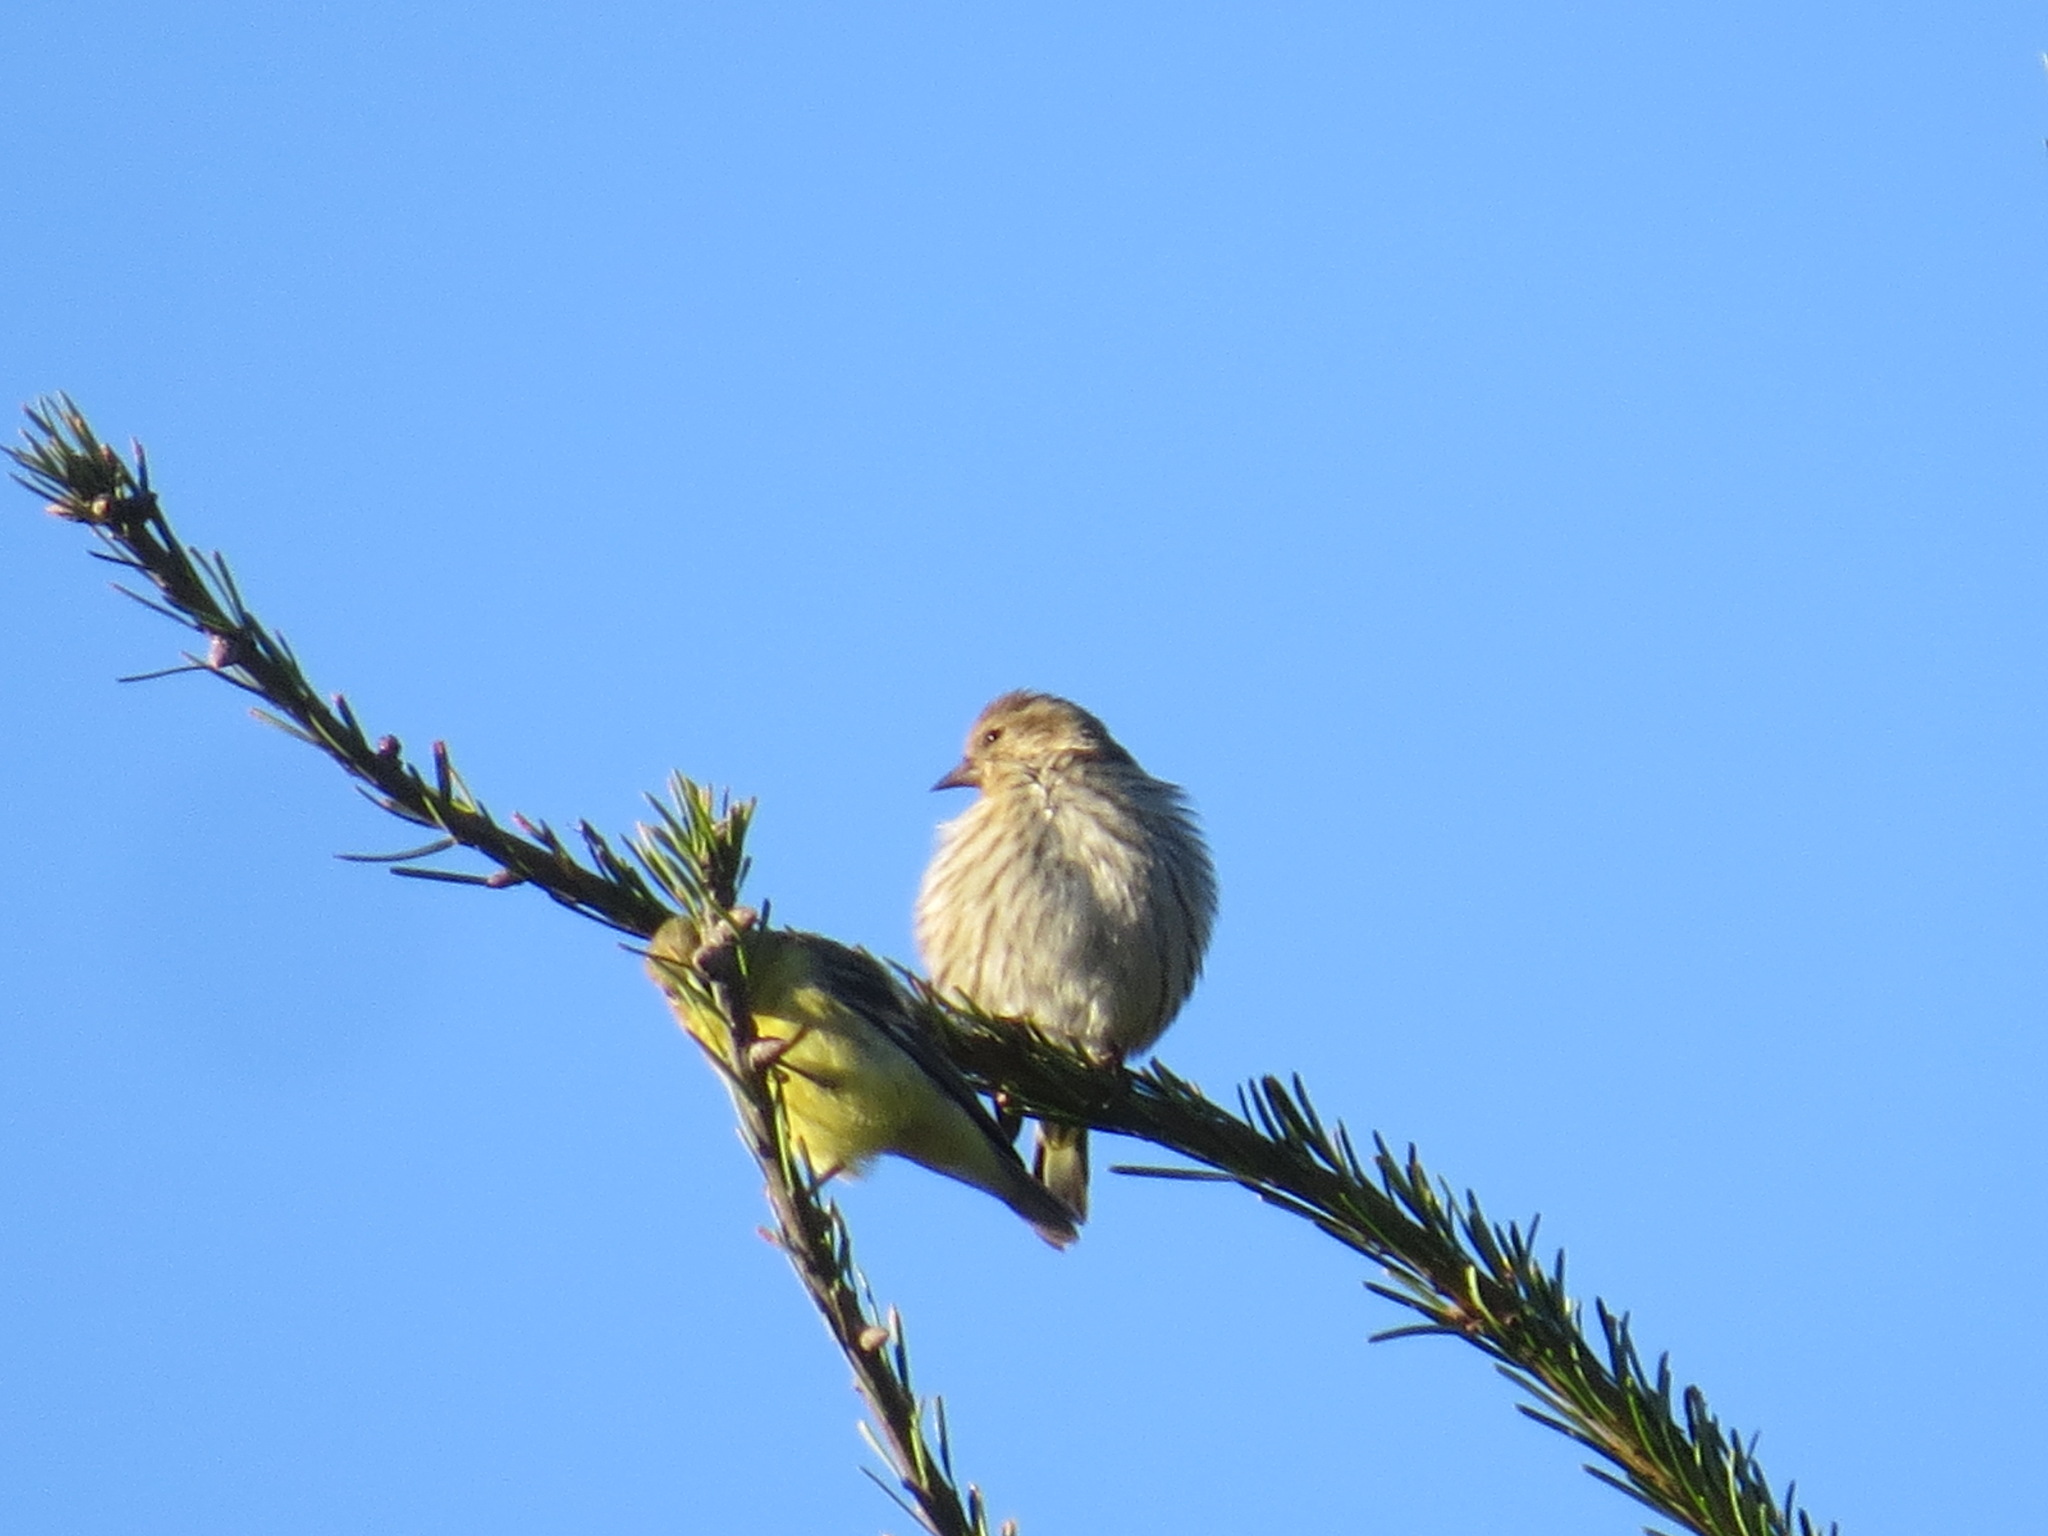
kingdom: Animalia
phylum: Chordata
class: Aves
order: Passeriformes
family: Fringillidae
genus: Spinus
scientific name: Spinus pinus
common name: Pine siskin
